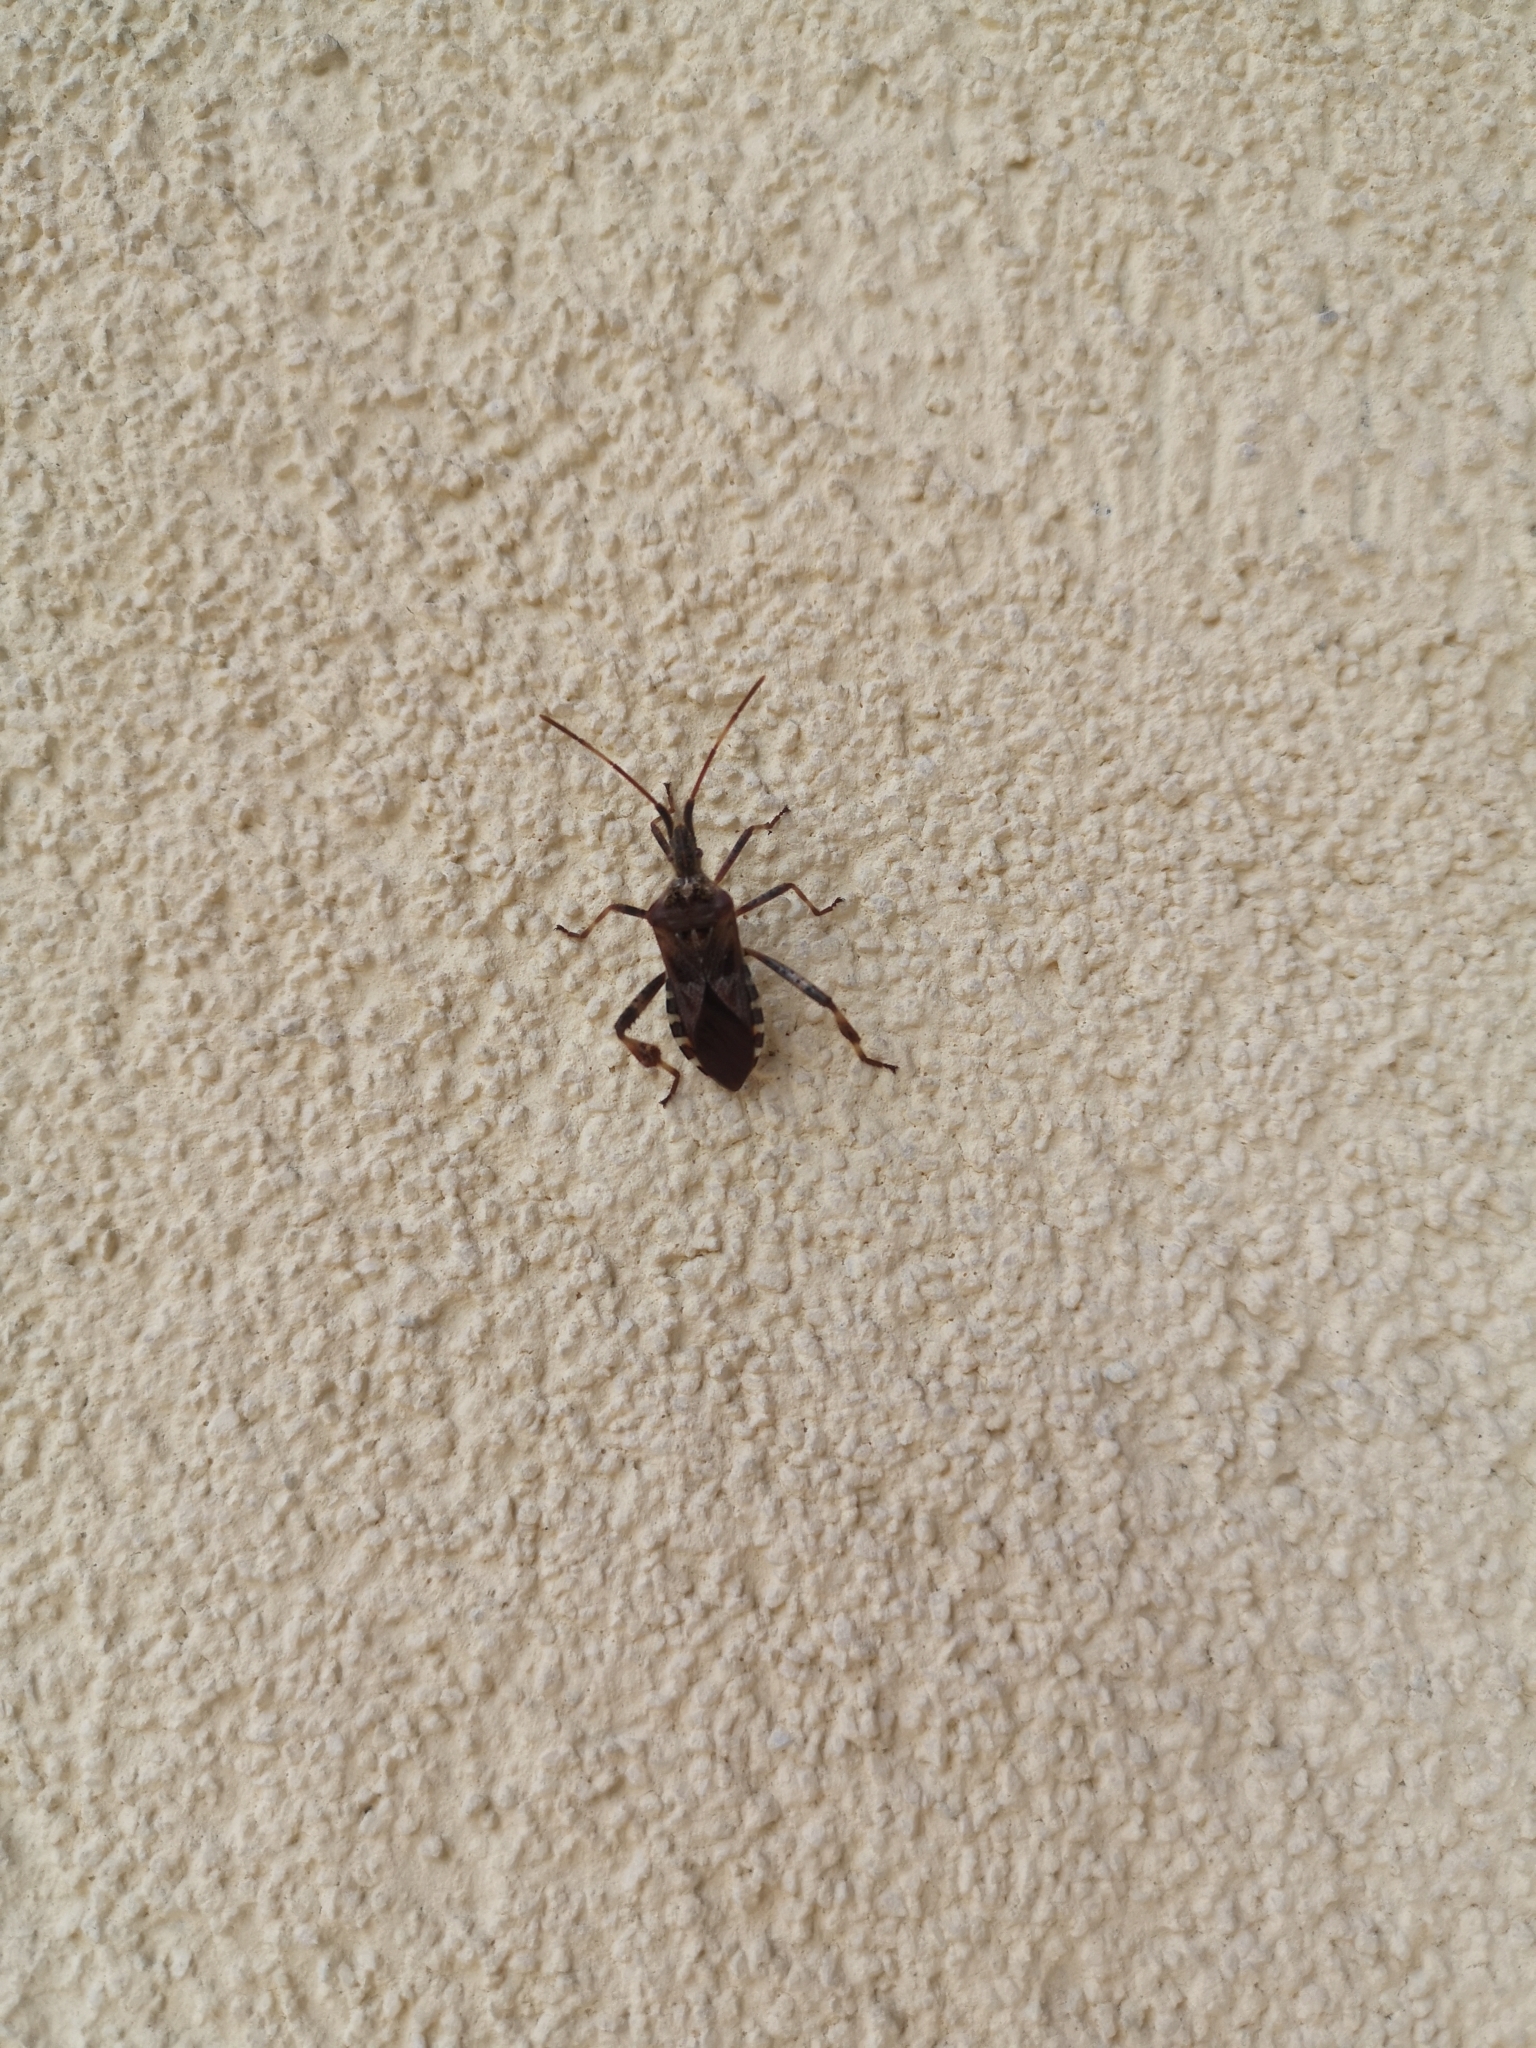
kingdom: Animalia
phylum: Arthropoda
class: Insecta
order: Hemiptera
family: Coreidae
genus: Leptoglossus
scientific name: Leptoglossus occidentalis
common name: Western conifer-seed bug
